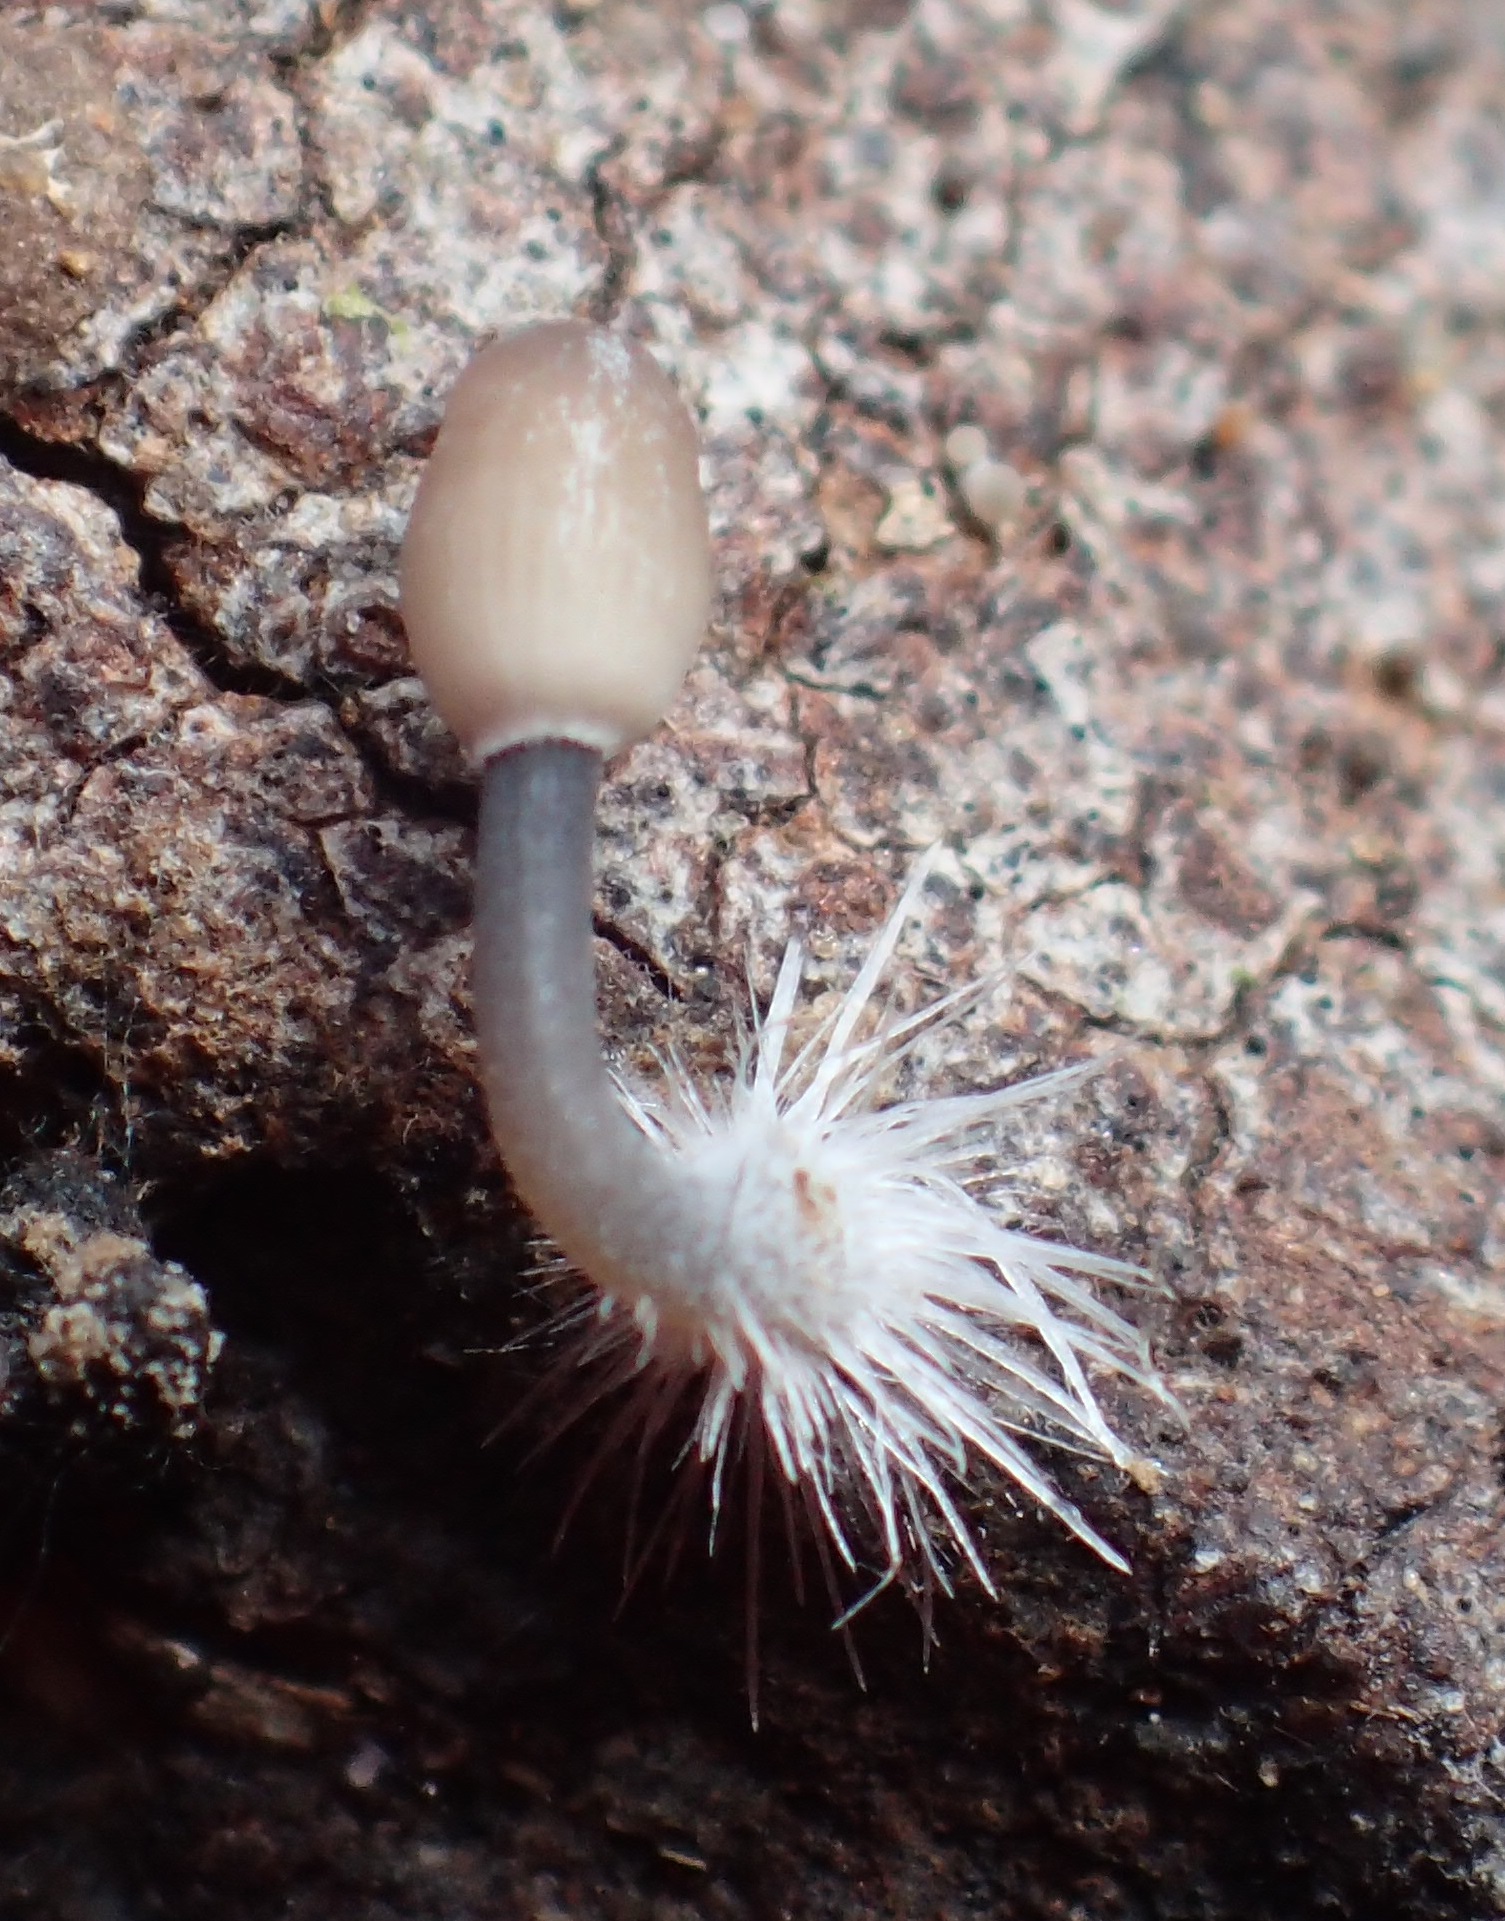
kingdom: Fungi
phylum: Basidiomycota
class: Agaricomycetes
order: Agaricales
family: Mycenaceae
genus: Mycena
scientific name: Mycena cystidiosa
